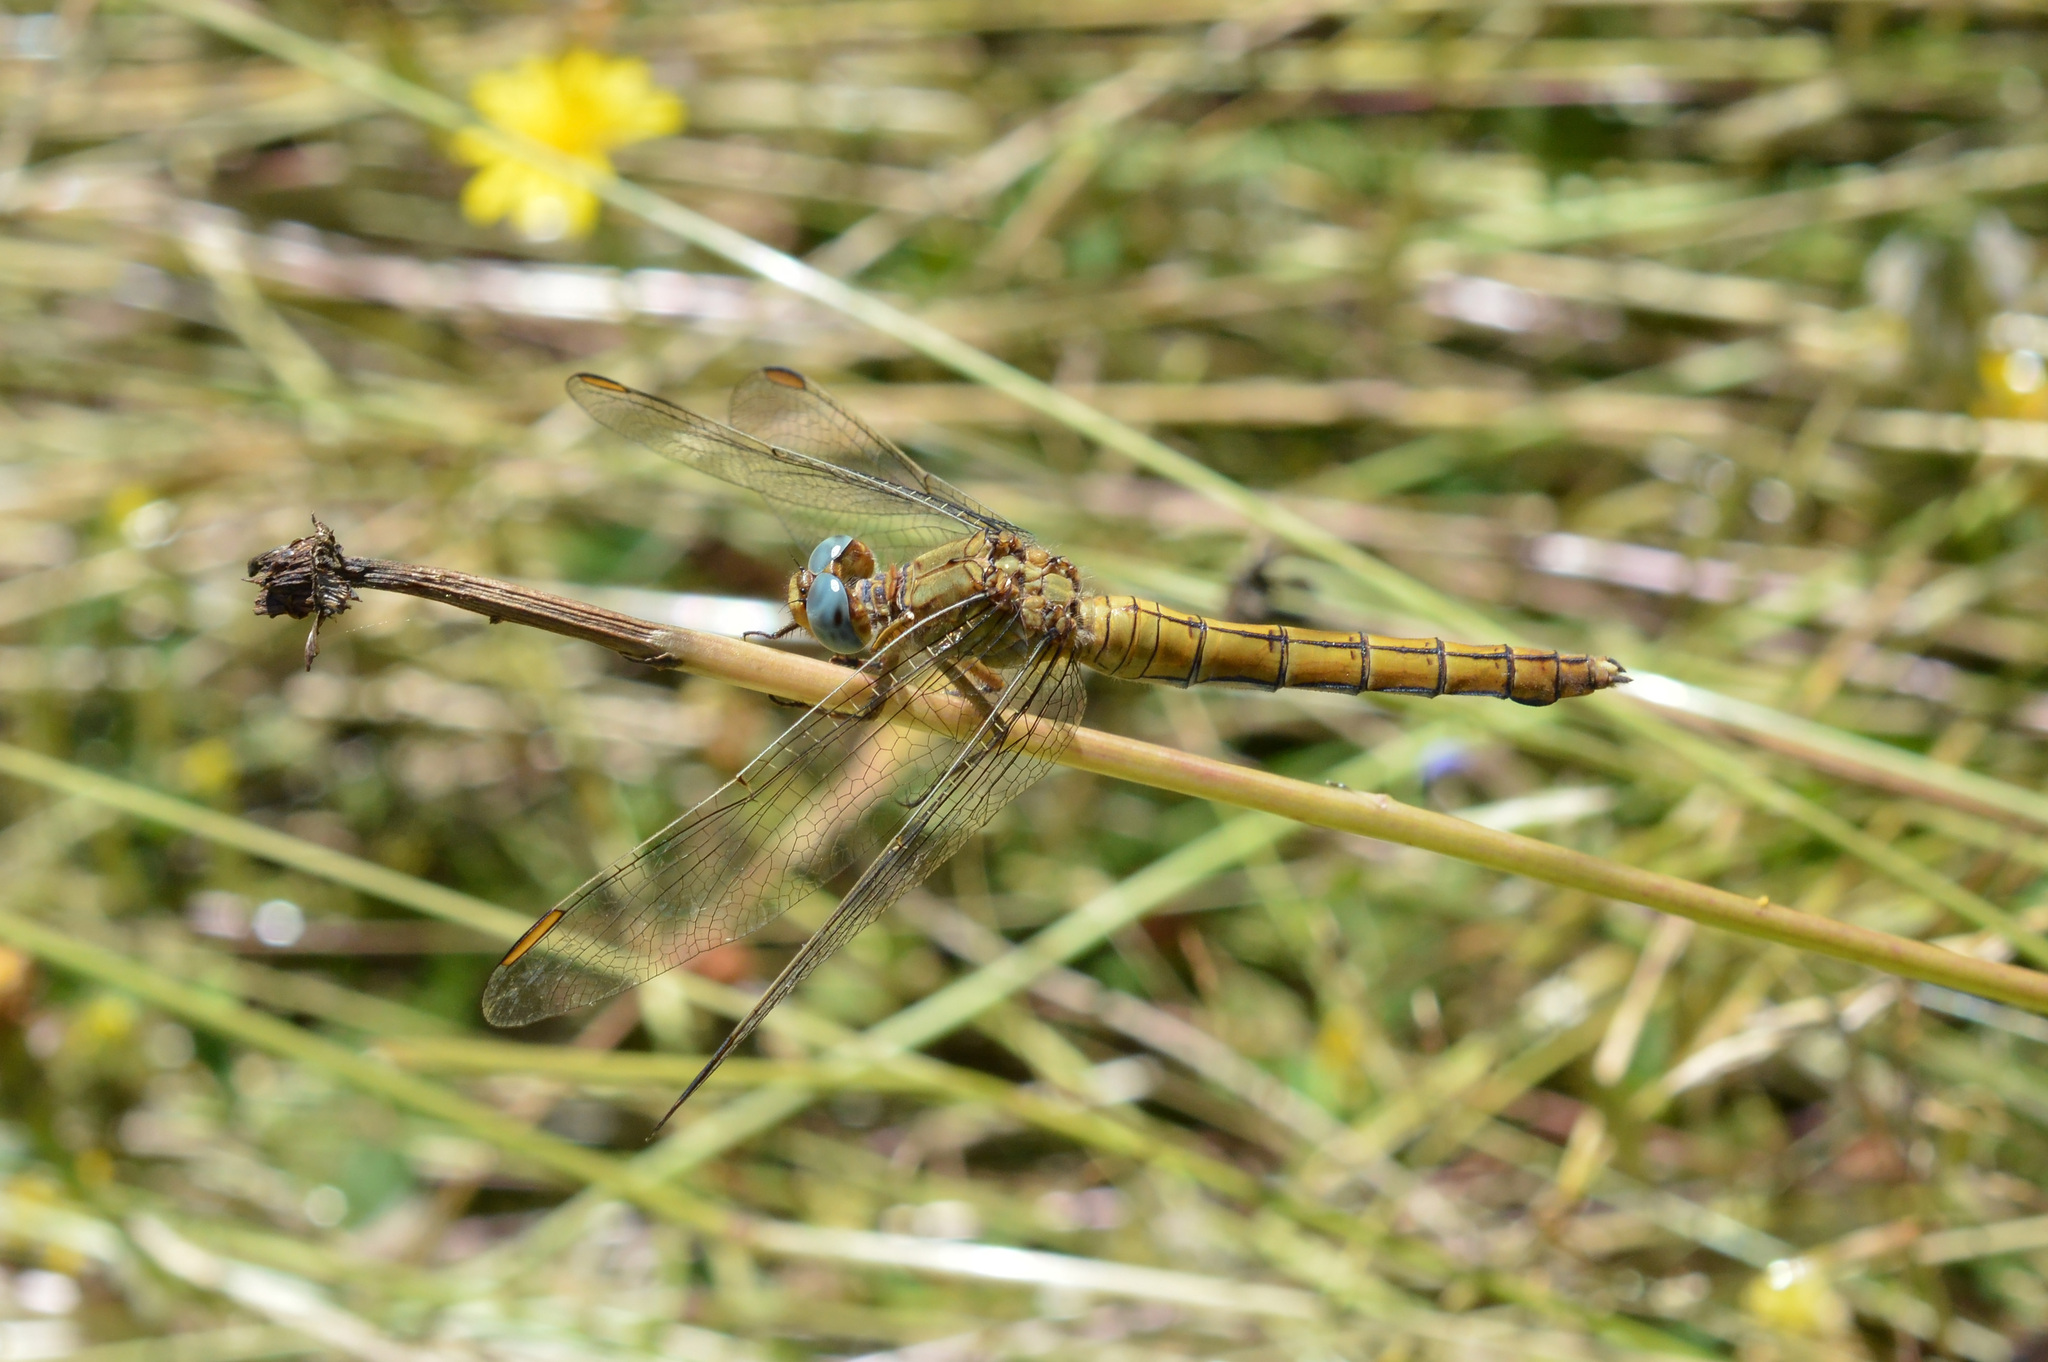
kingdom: Animalia
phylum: Arthropoda
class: Insecta
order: Odonata
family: Libellulidae
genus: Orthetrum
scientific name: Orthetrum coerulescens
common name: Keeled skimmer
